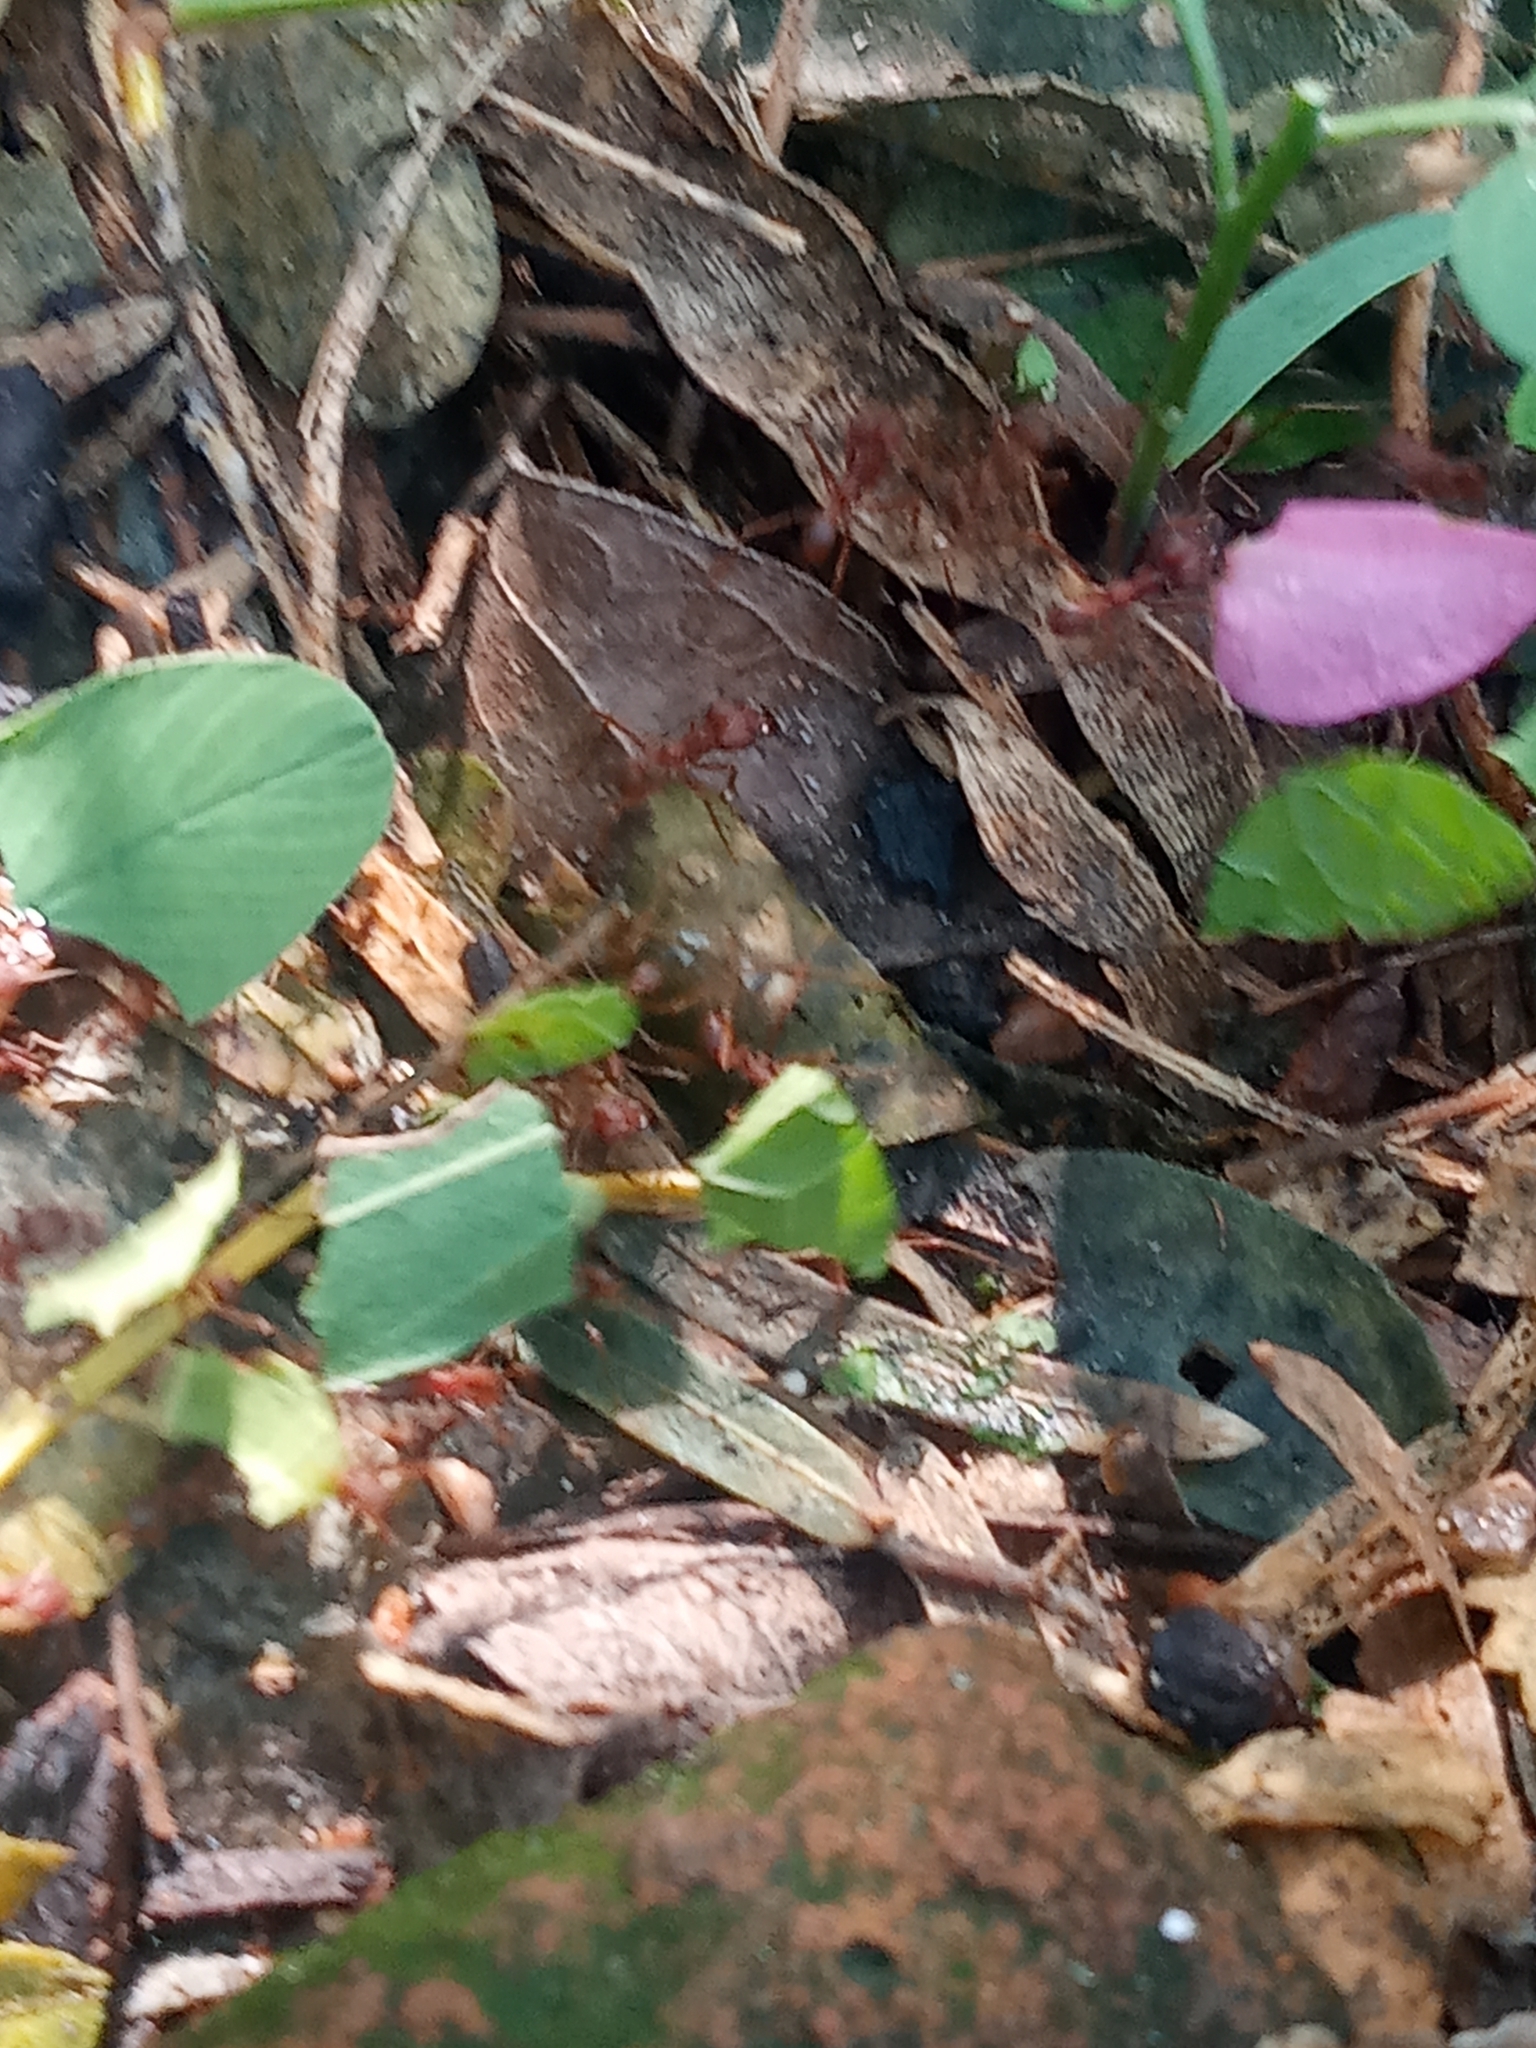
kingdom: Animalia
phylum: Arthropoda
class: Insecta
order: Hymenoptera
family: Formicidae
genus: Atta
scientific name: Atta texana
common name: Texas leafcutting ant
